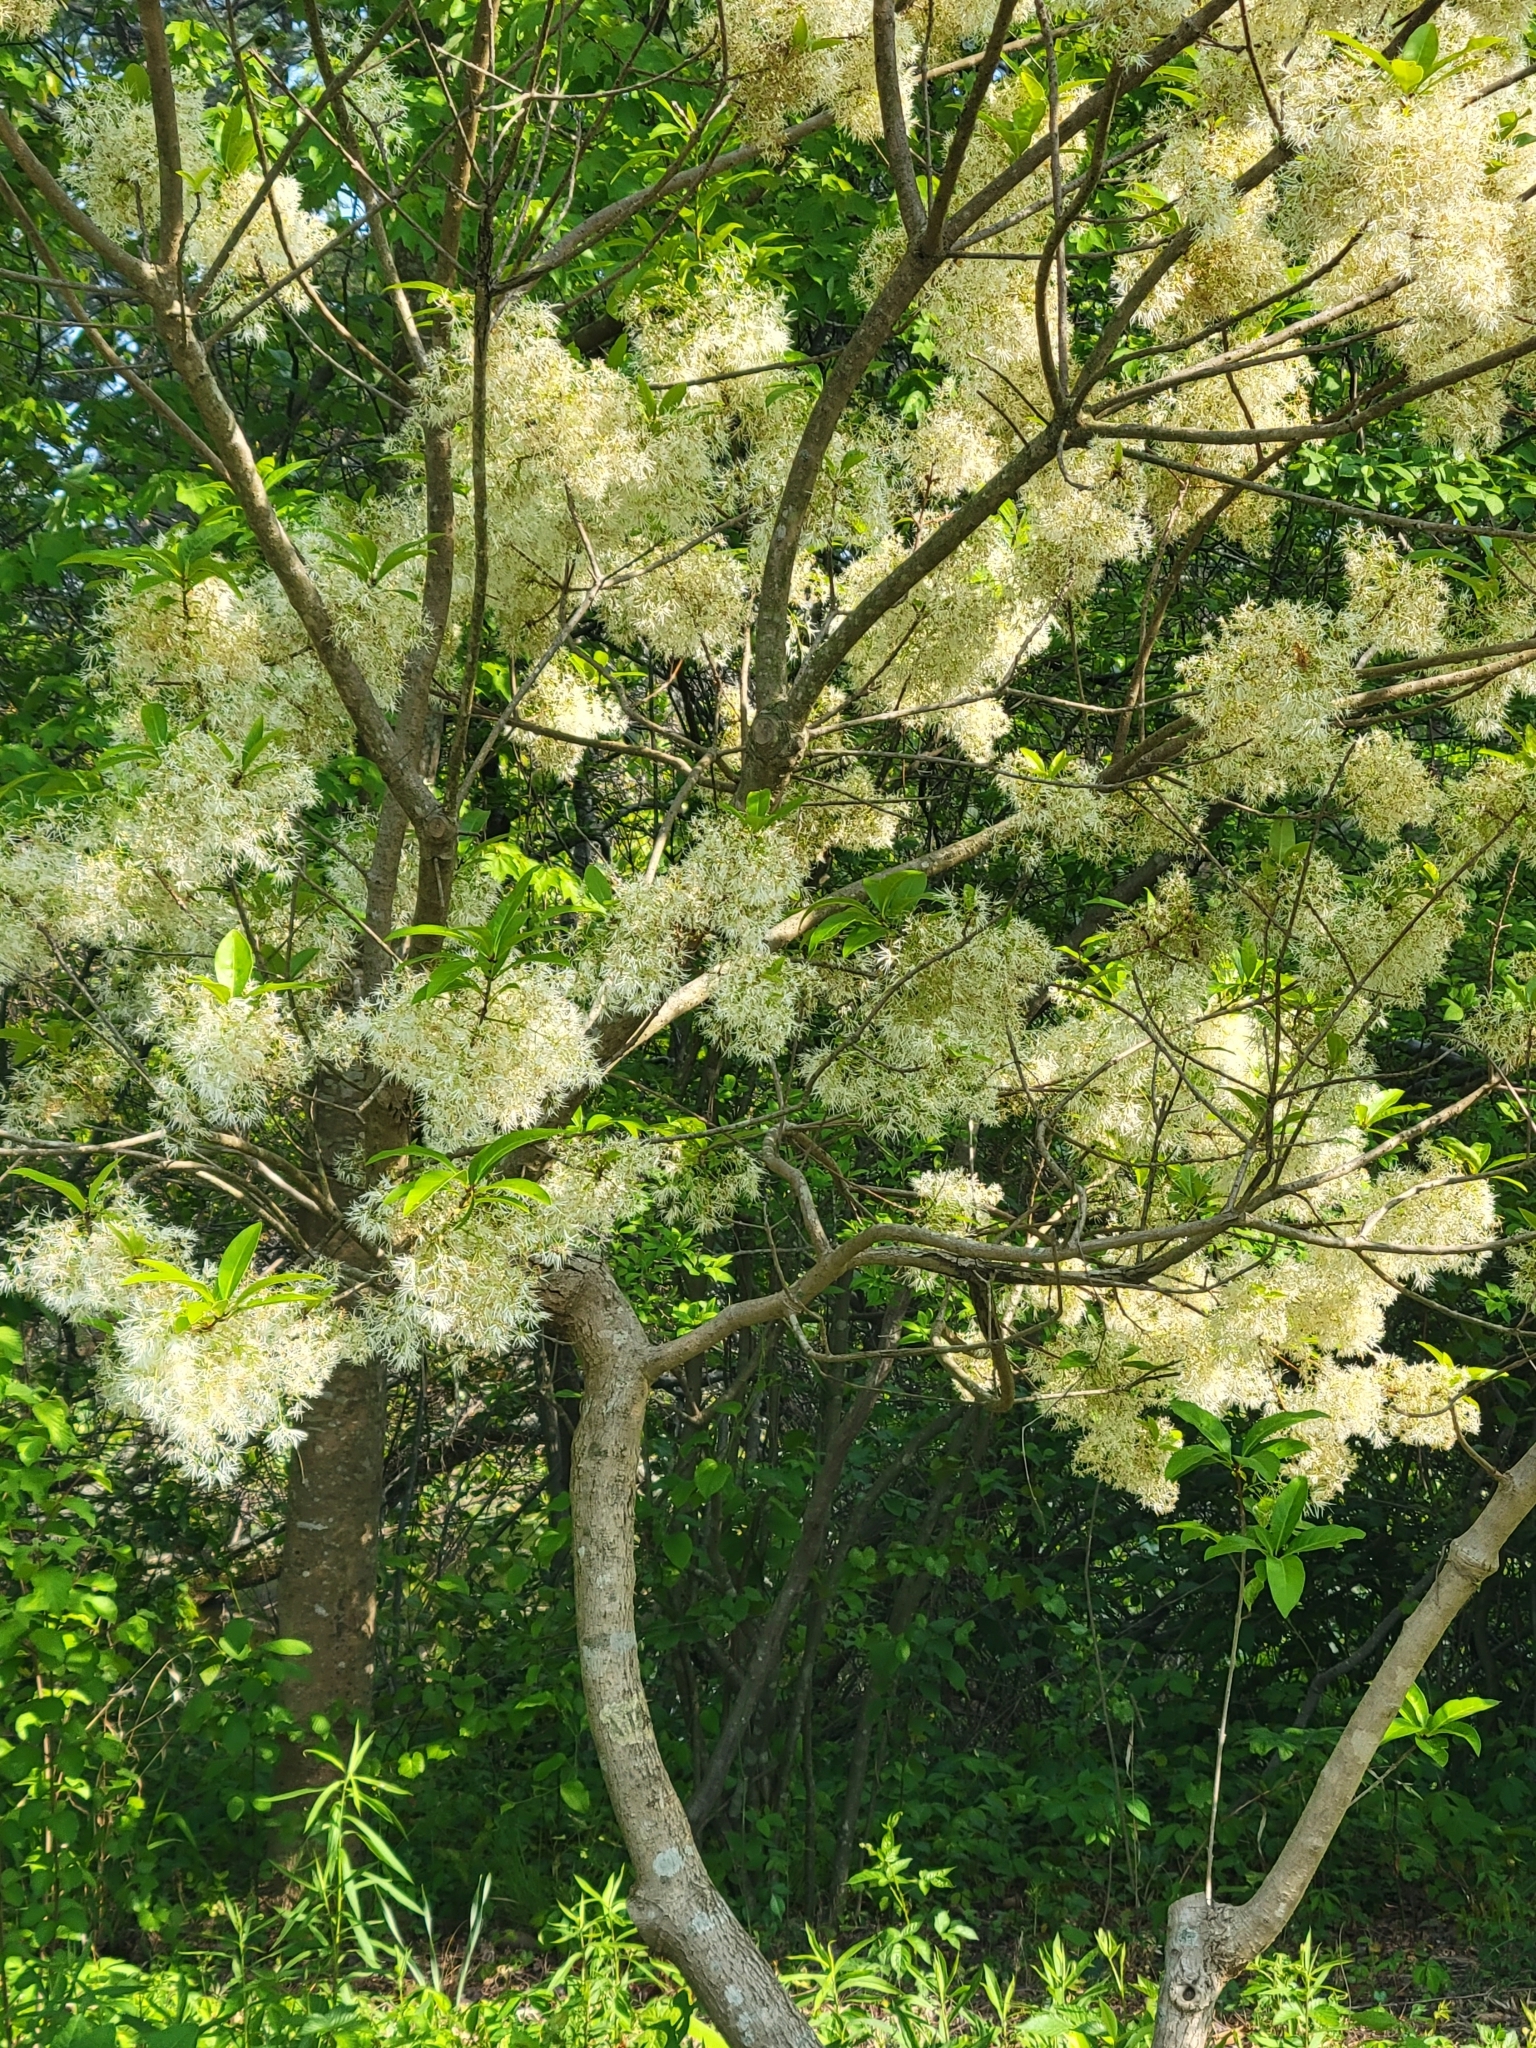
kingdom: Plantae
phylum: Tracheophyta
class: Magnoliopsida
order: Lamiales
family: Oleaceae
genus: Chionanthus
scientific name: Chionanthus virginicus
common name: American fringetree
